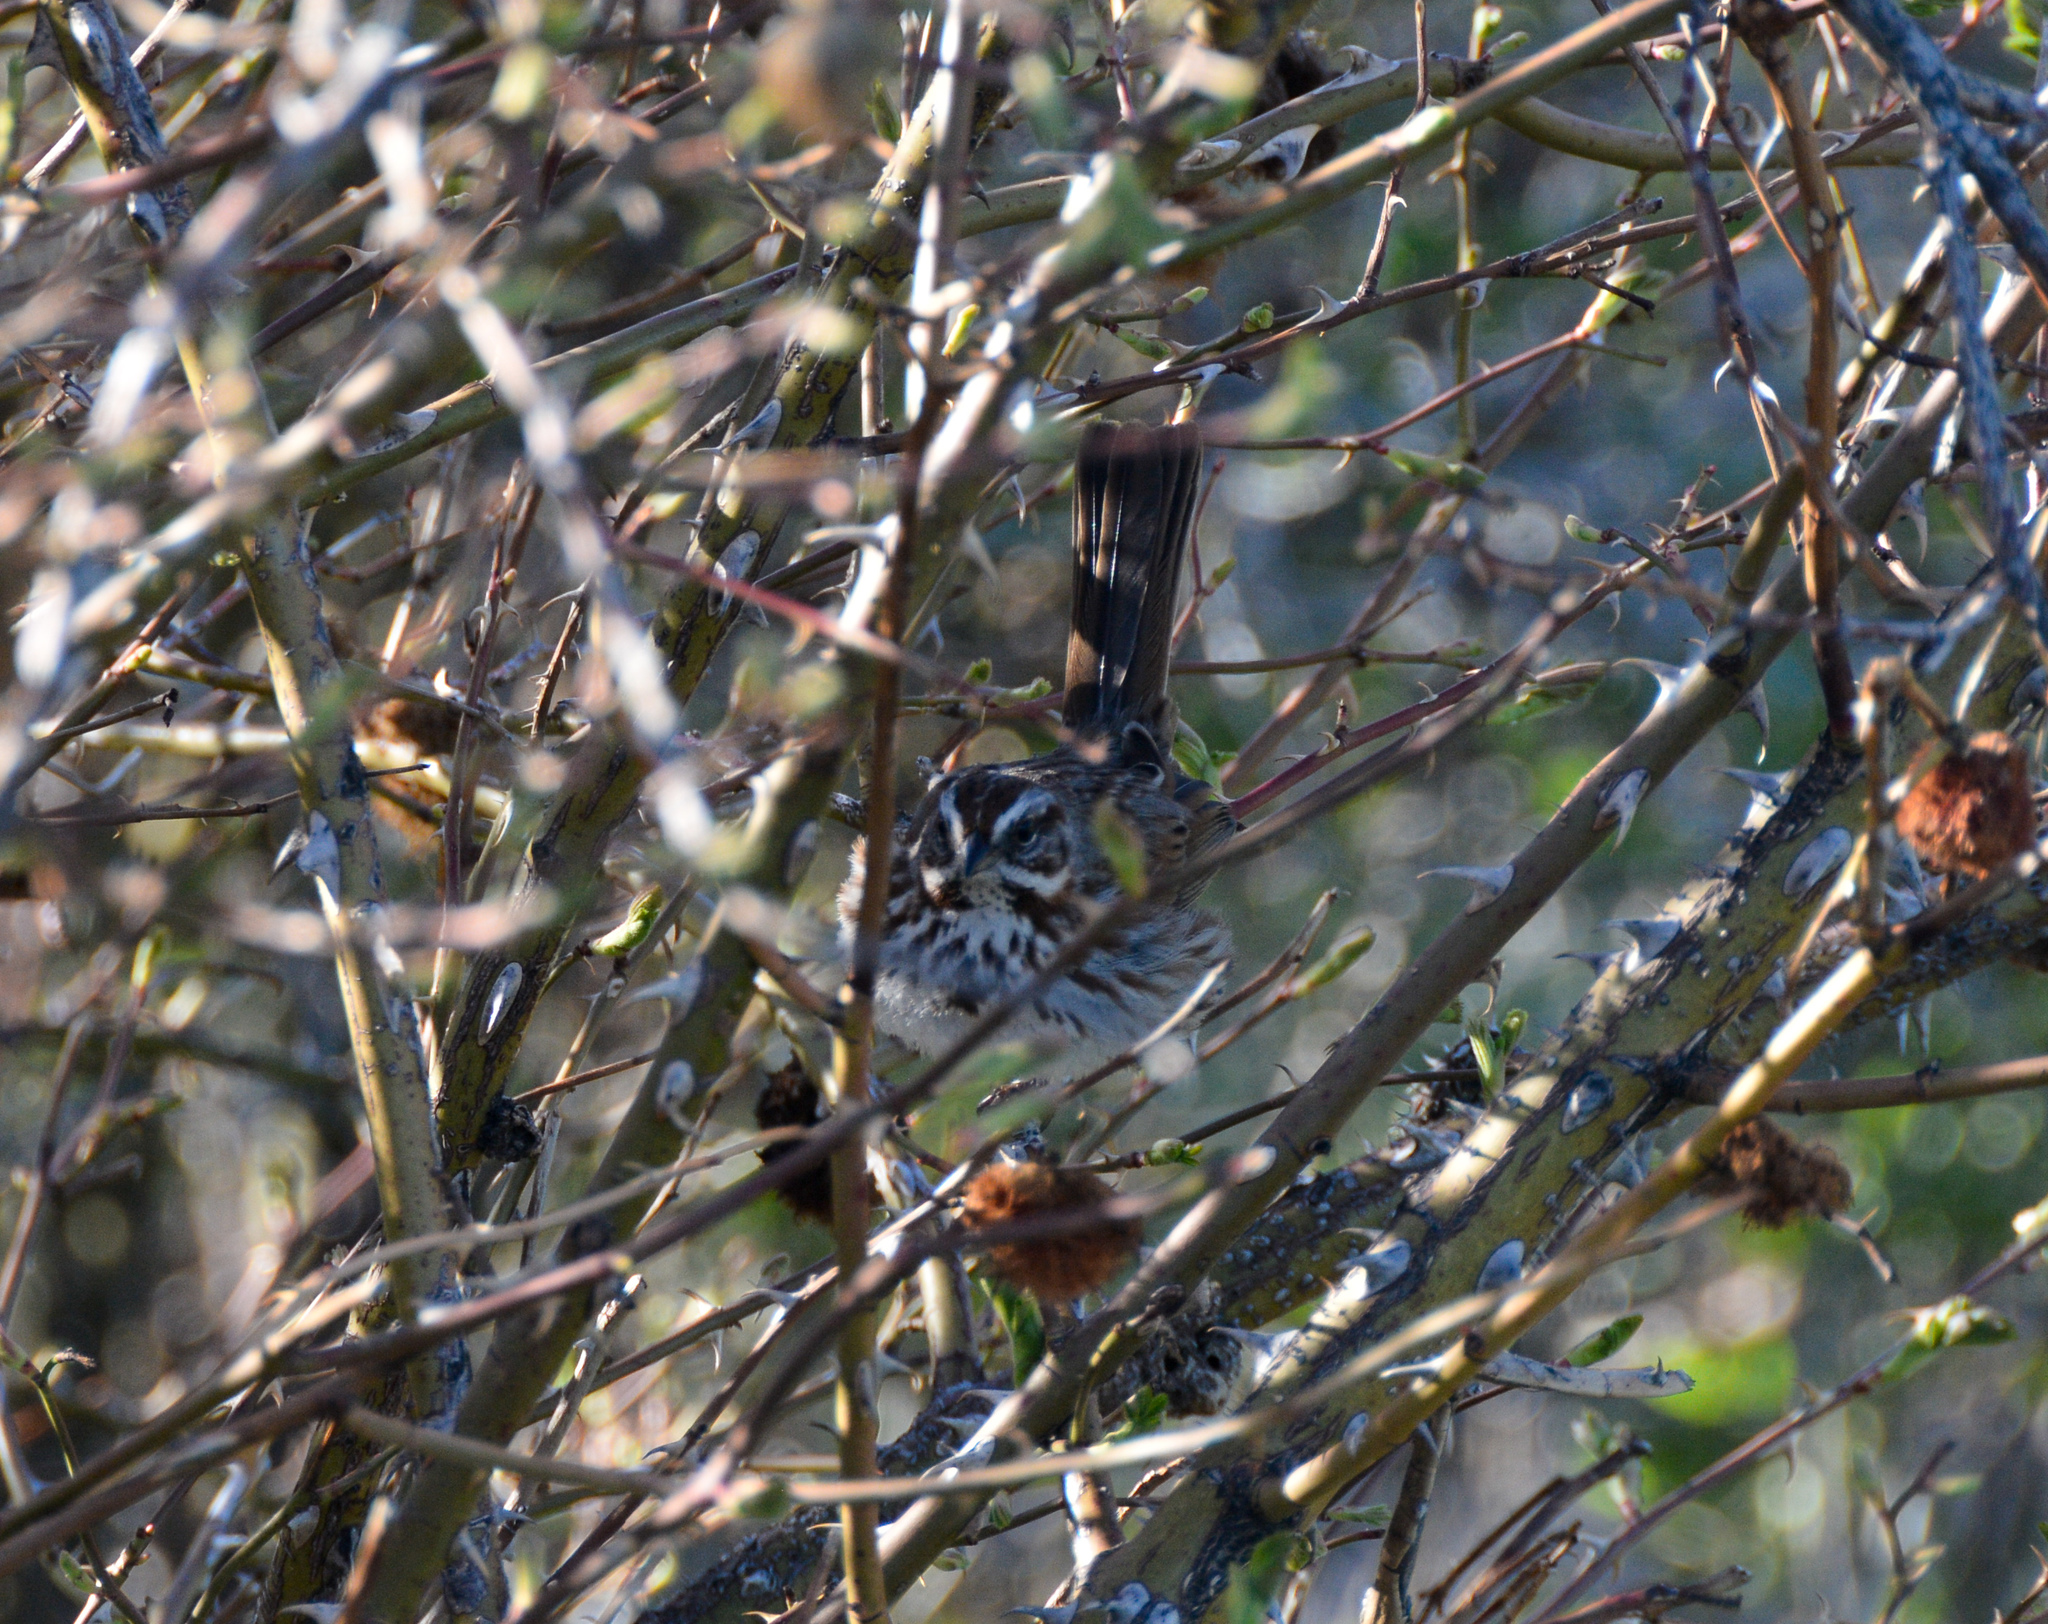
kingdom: Animalia
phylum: Chordata
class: Aves
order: Passeriformes
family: Passerellidae
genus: Melospiza
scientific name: Melospiza melodia
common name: Song sparrow
